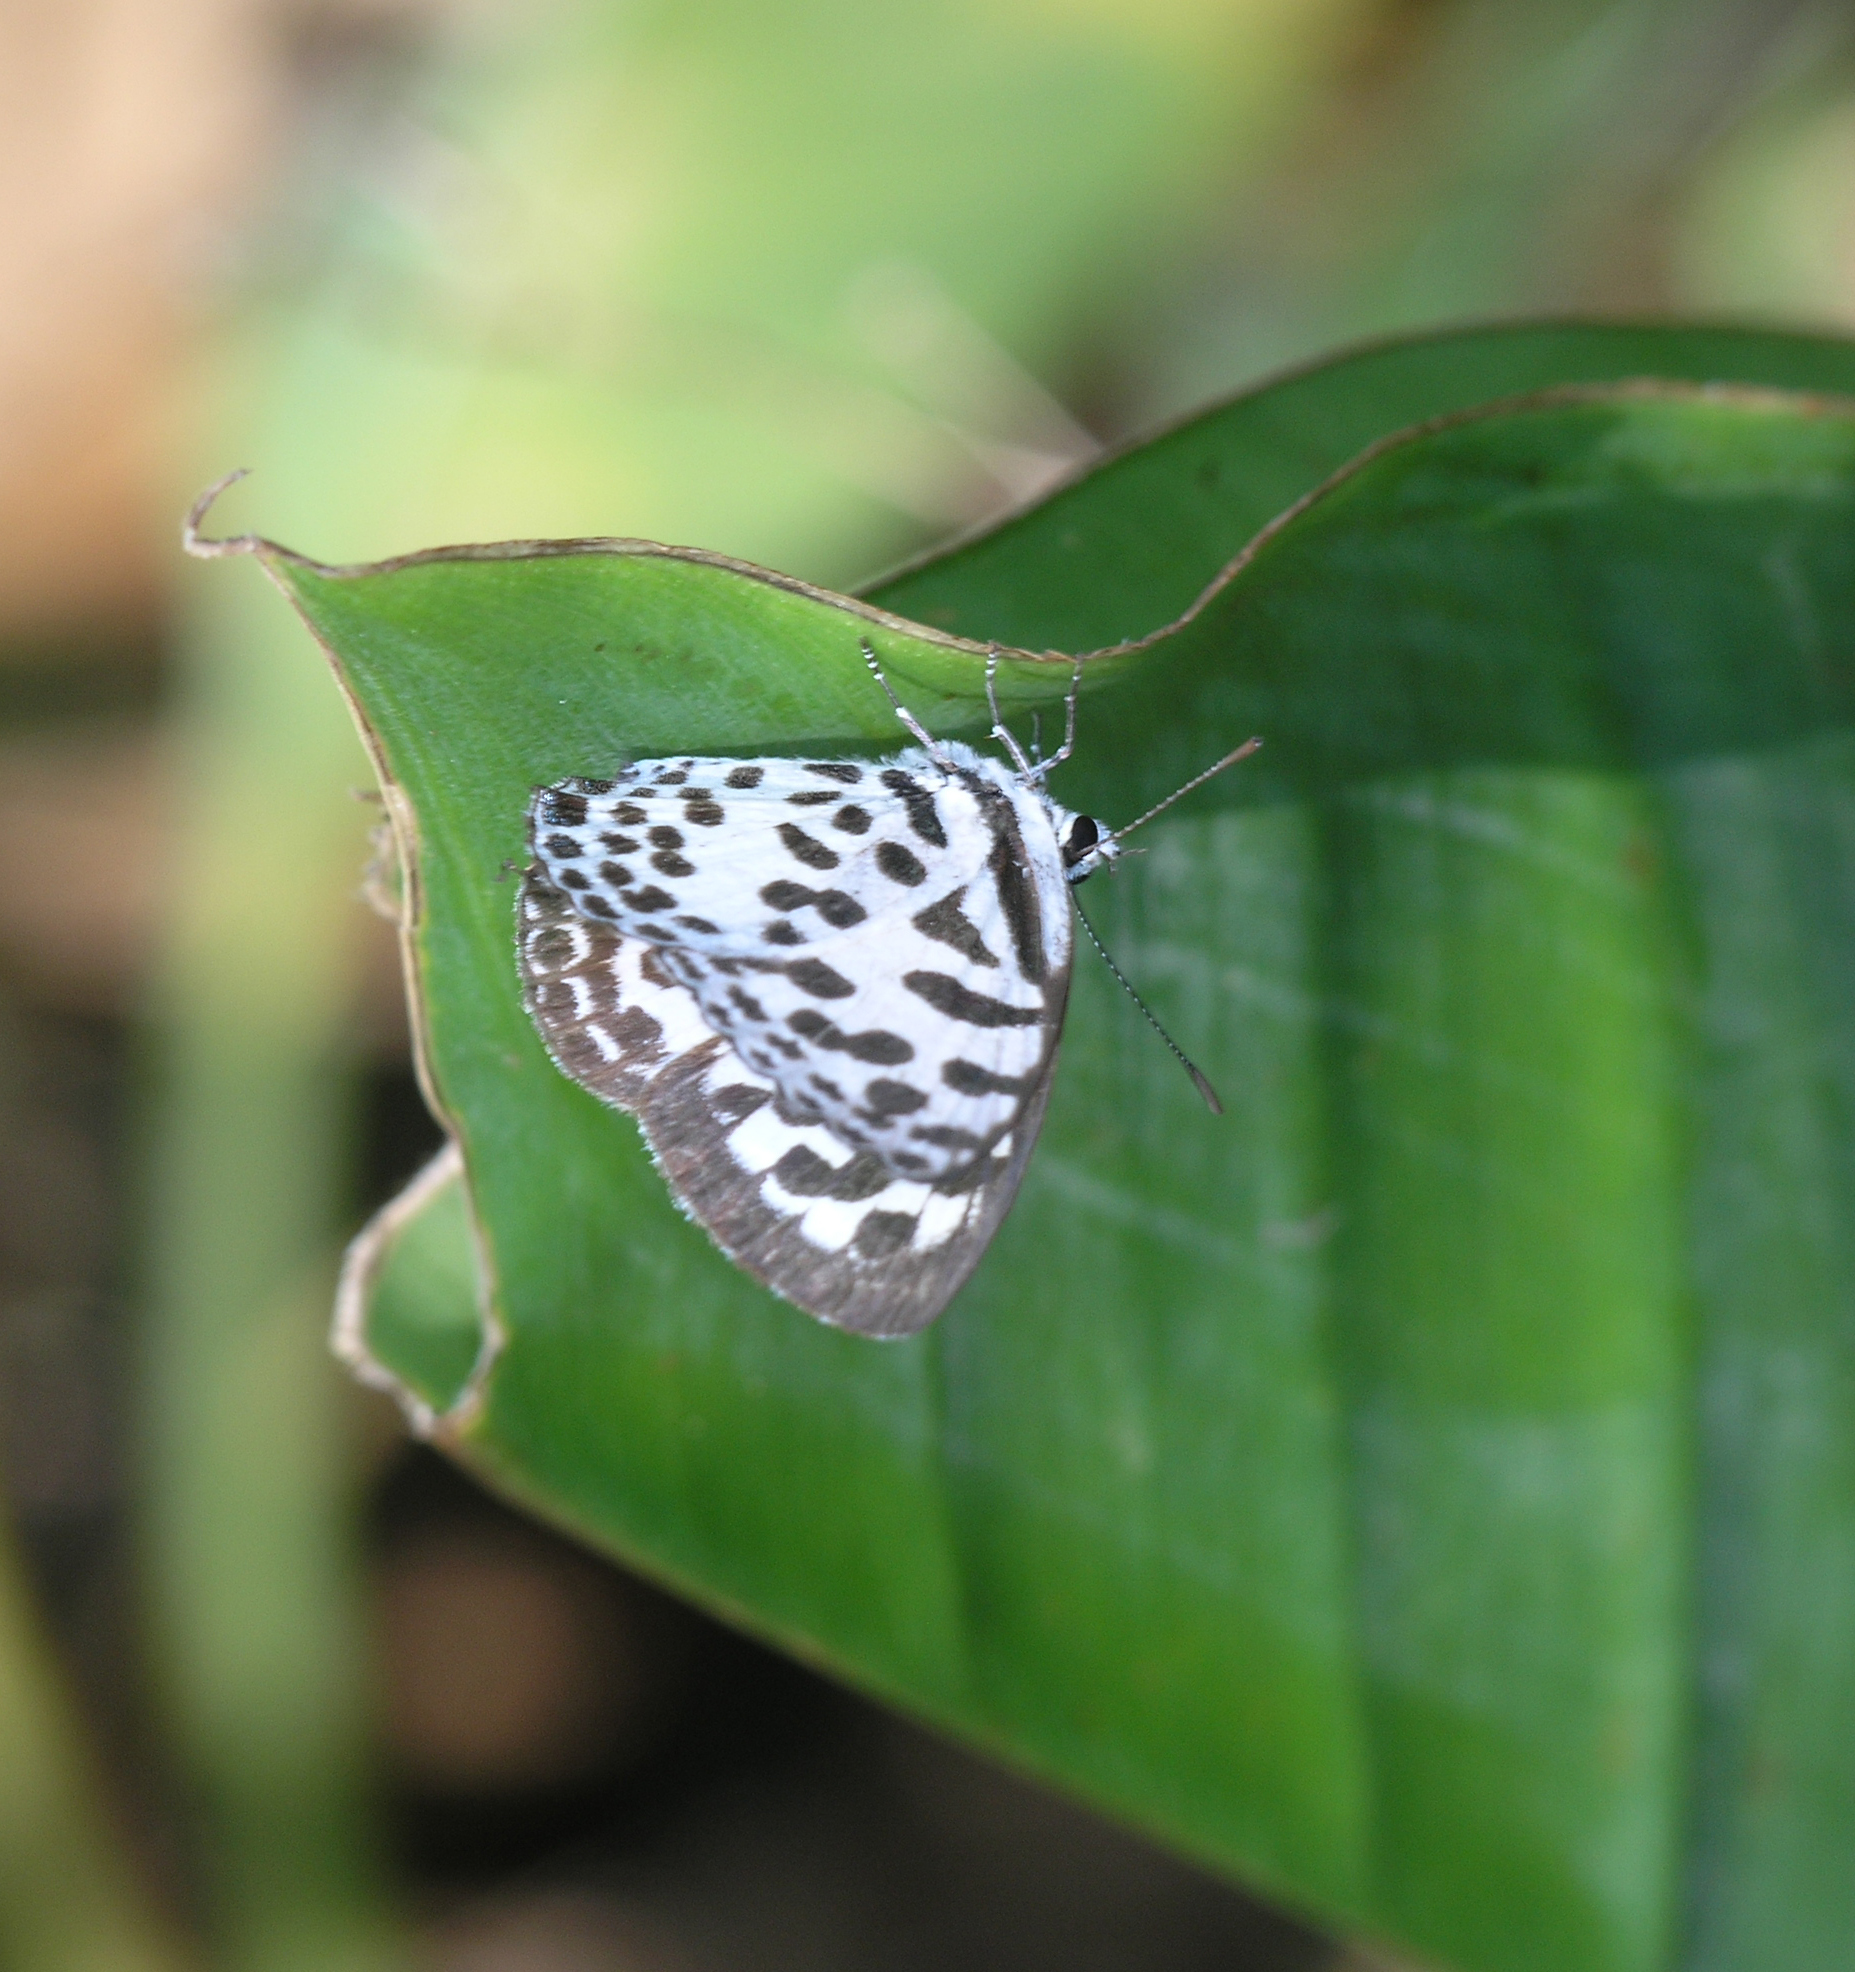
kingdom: Animalia
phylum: Arthropoda
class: Insecta
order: Lepidoptera
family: Lycaenidae
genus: Castalius
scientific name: Castalius rosimon
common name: Common pierrot
